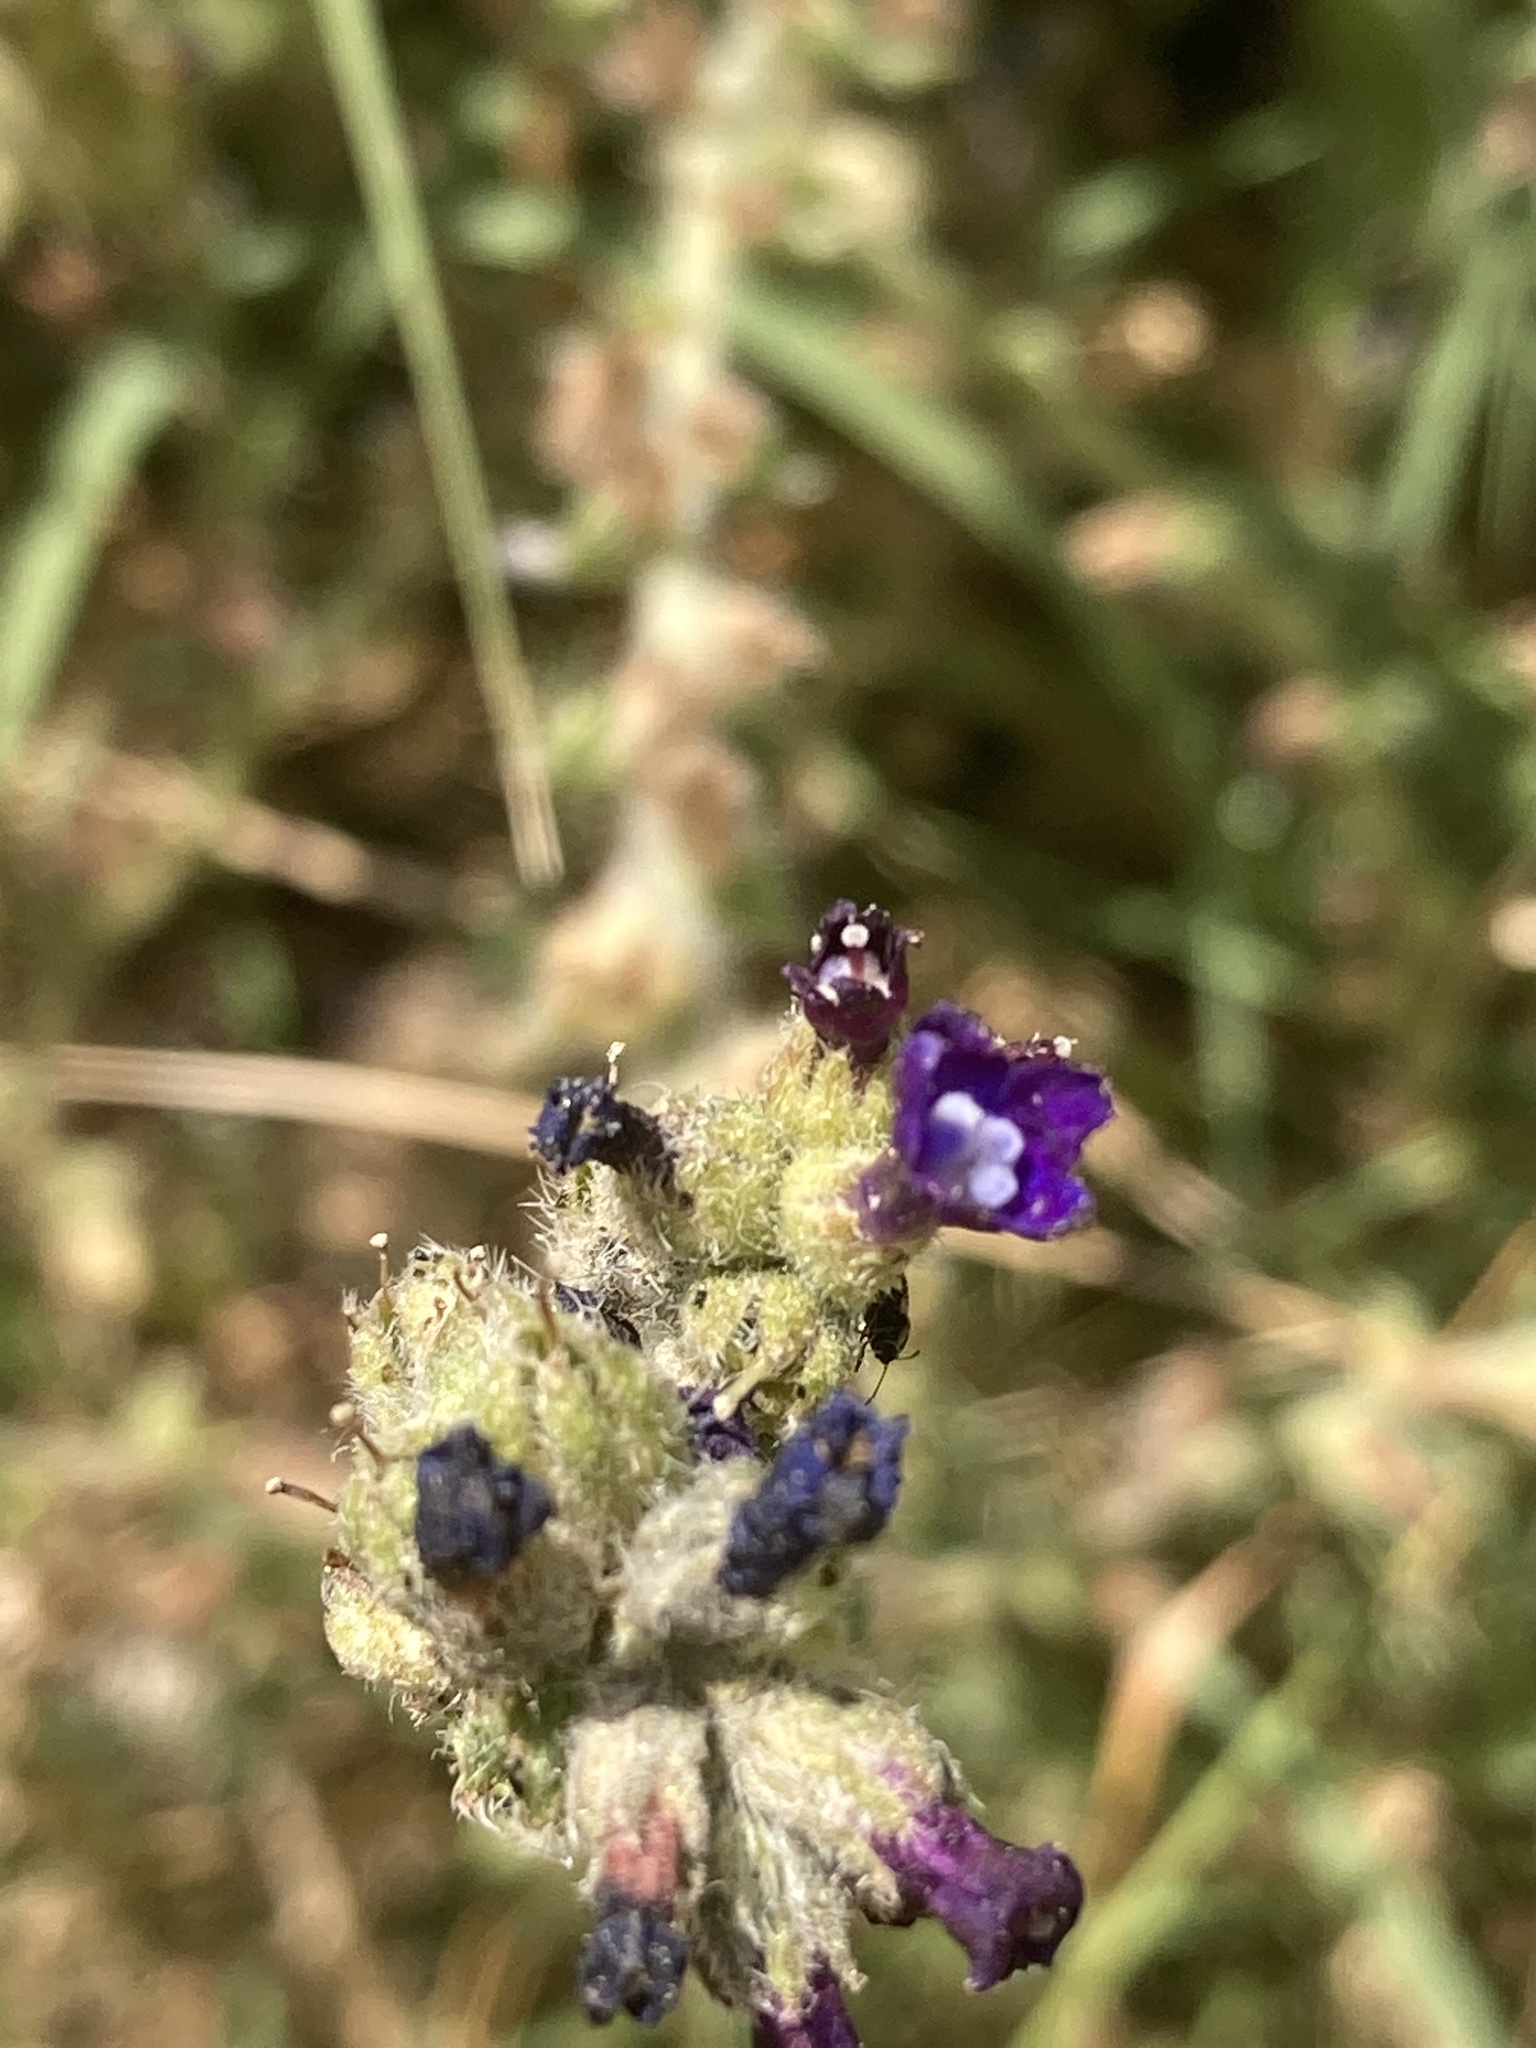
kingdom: Plantae
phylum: Tracheophyta
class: Magnoliopsida
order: Boraginales
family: Boraginaceae
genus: Anchusa
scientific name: Anchusa hybrida
